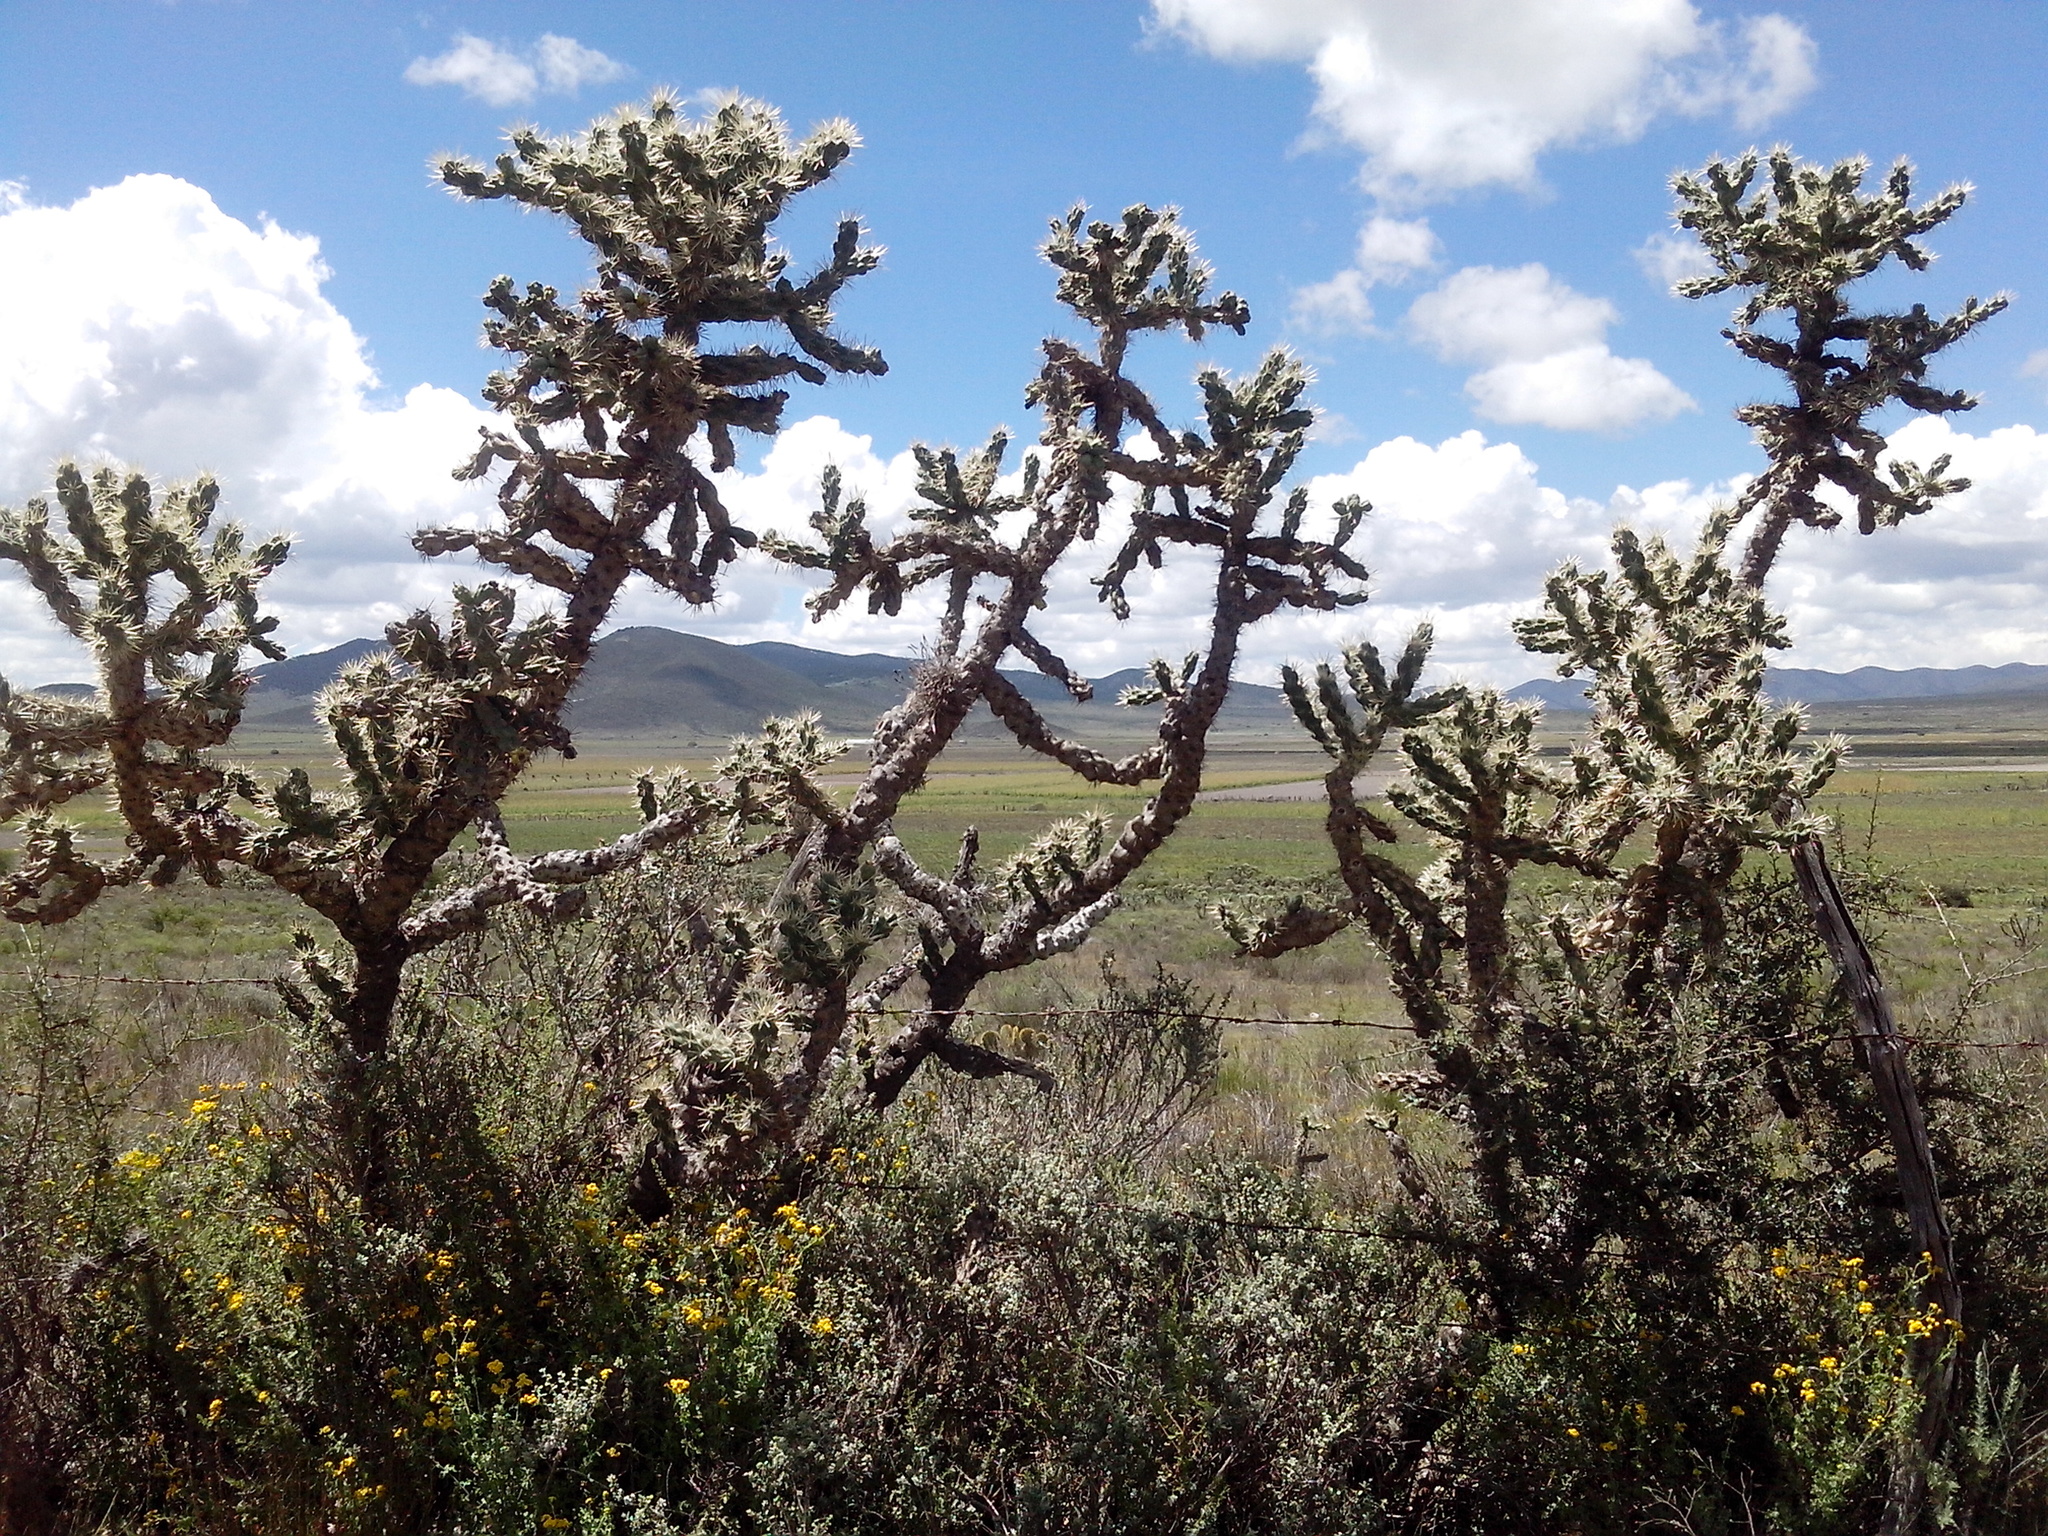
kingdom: Plantae
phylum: Tracheophyta
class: Magnoliopsida
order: Caryophyllales
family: Cactaceae
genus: Cylindropuntia
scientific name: Cylindropuntia imbricata
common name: Candelabrum cactus
